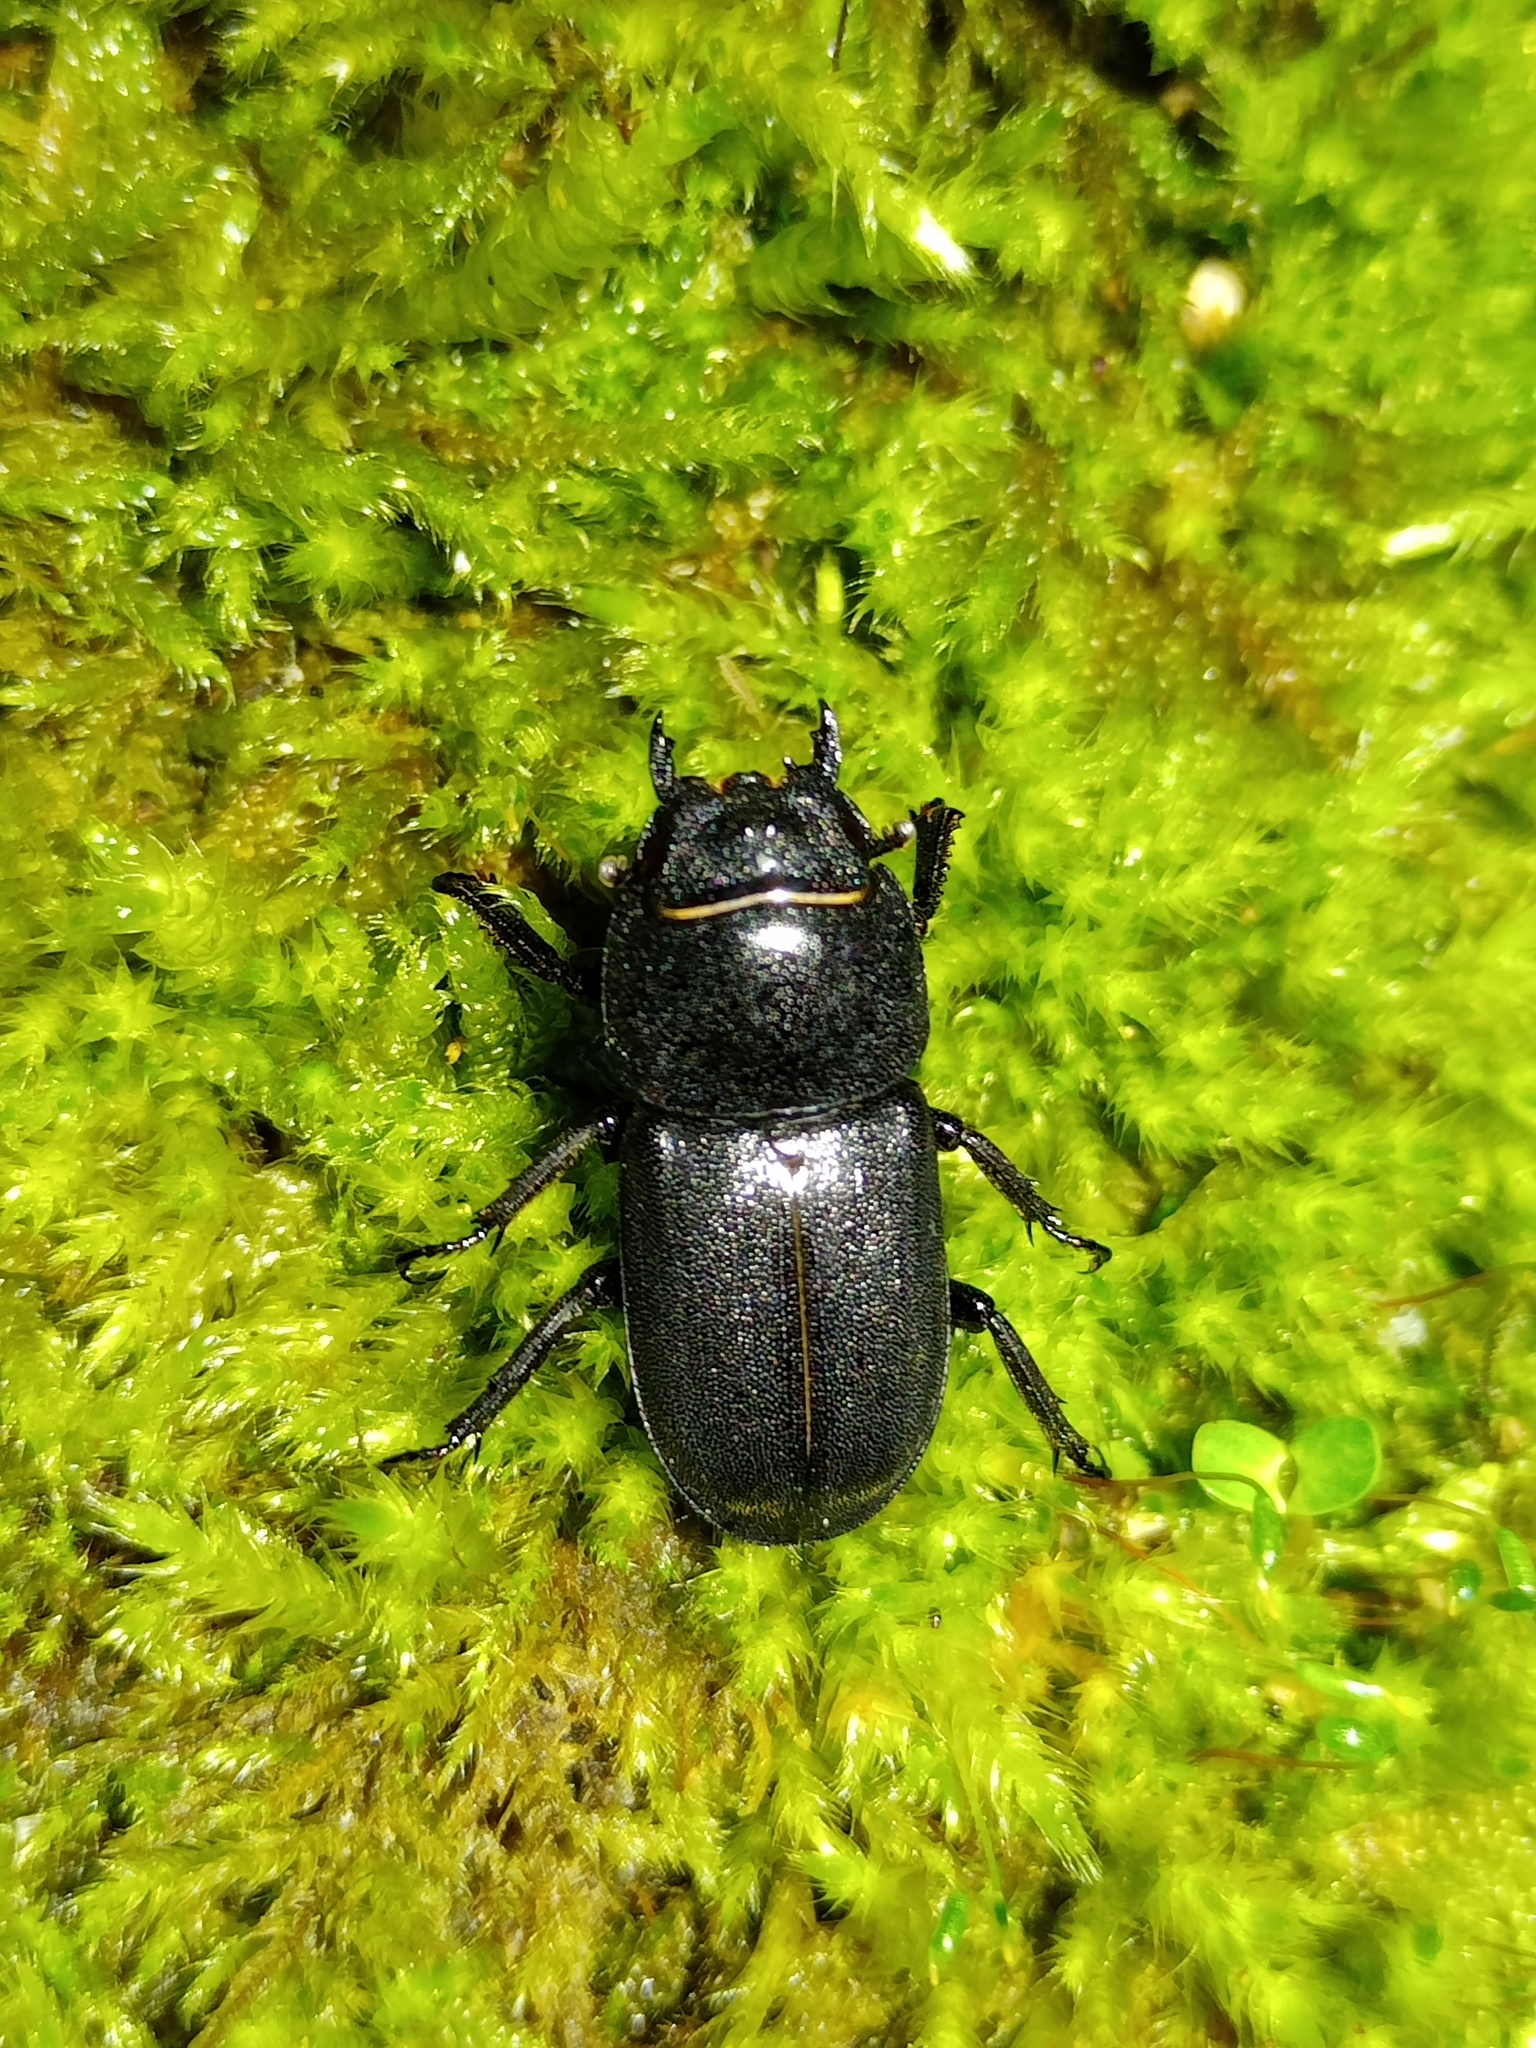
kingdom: Animalia
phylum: Arthropoda
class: Insecta
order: Coleoptera
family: Lucanidae
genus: Dorcus
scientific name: Dorcus parallelipipedus
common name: Lesser stag beetle
